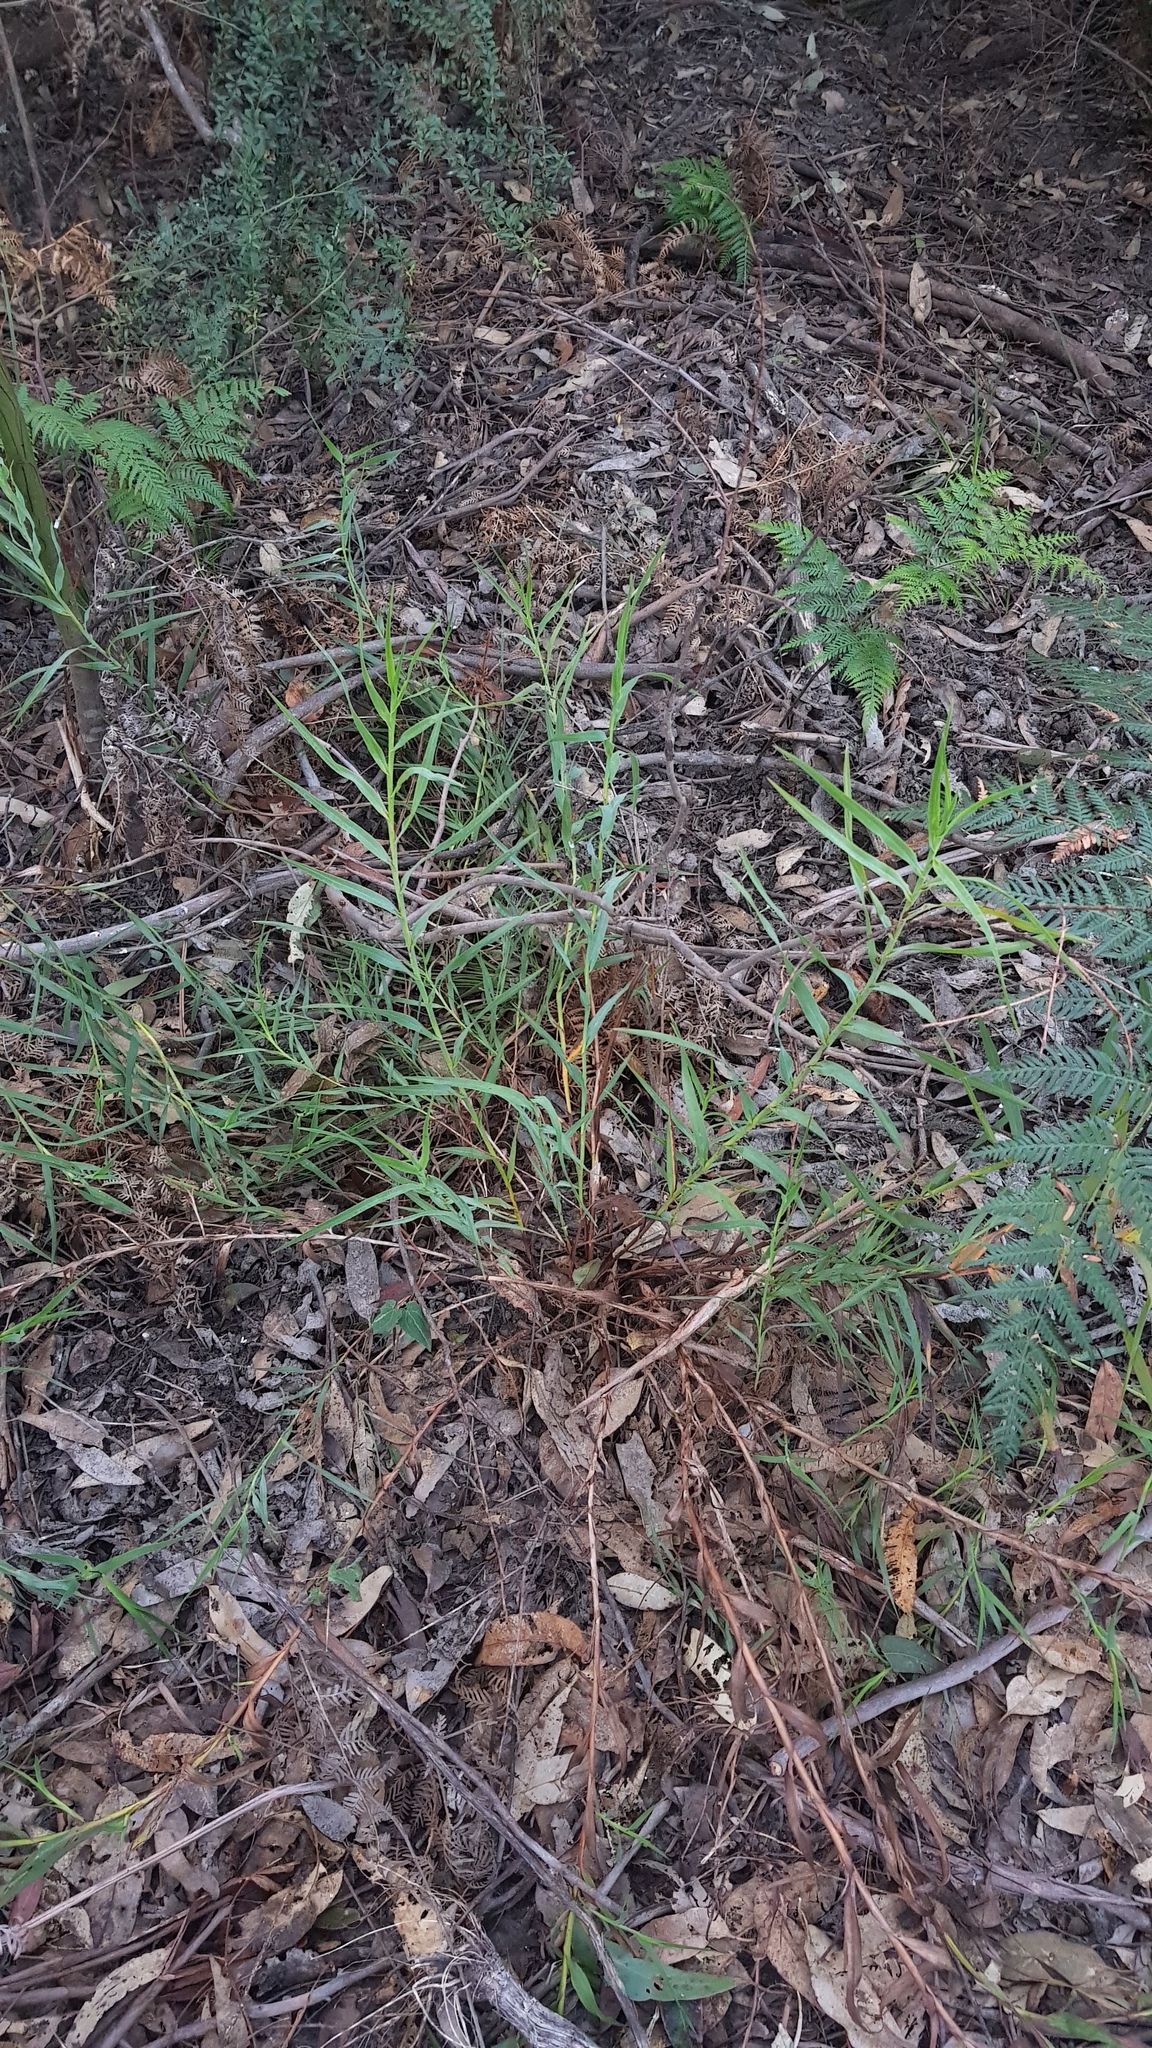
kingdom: Plantae
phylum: Tracheophyta
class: Liliopsida
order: Asparagales
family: Asphodelaceae
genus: Stypandra
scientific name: Stypandra glauca
